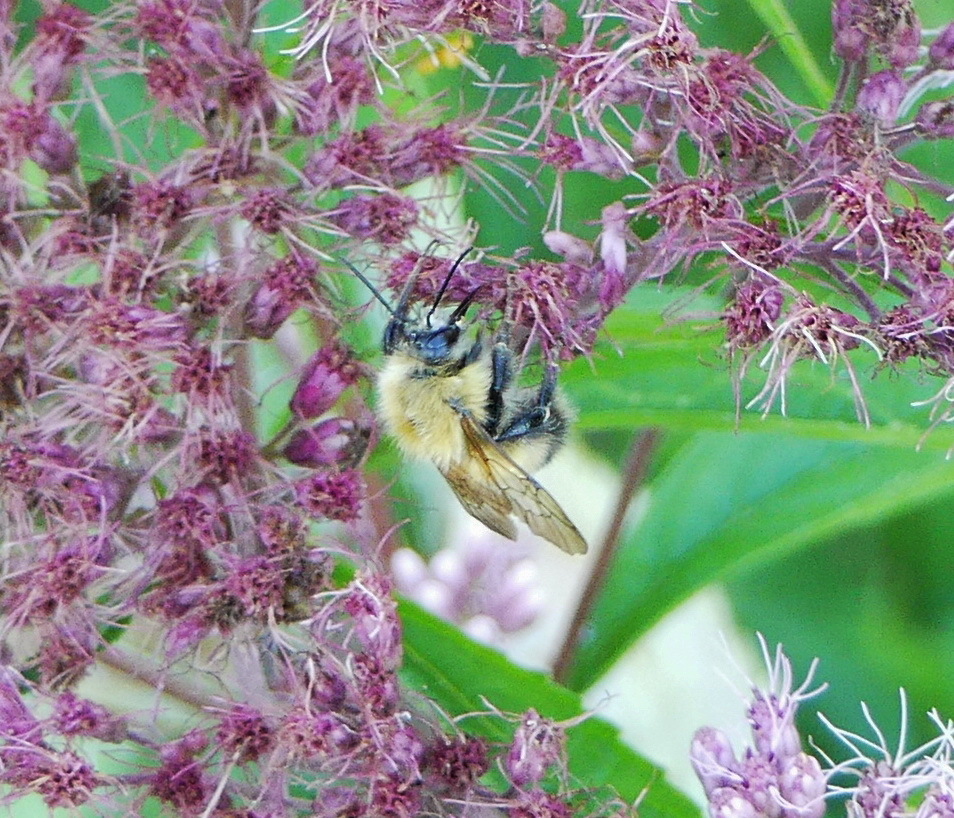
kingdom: Animalia
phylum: Arthropoda
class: Insecta
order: Hymenoptera
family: Apidae
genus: Bombus
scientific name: Bombus perplexus
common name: Confusing bumble bee
